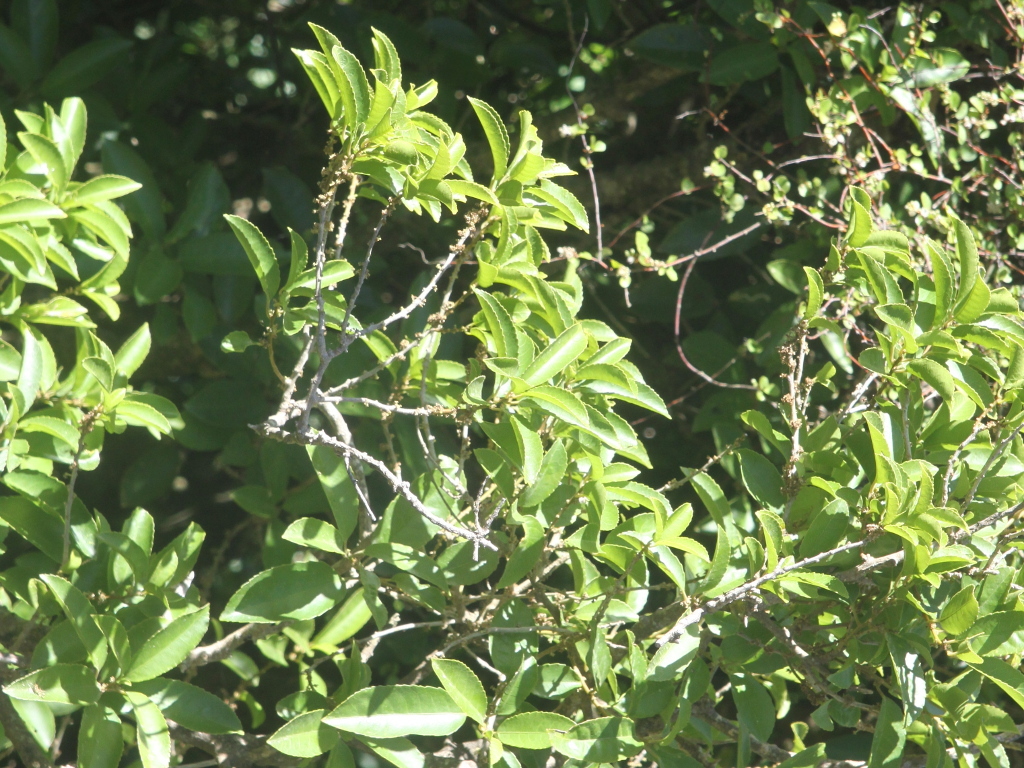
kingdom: Plantae
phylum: Tracheophyta
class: Magnoliopsida
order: Malpighiales
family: Violaceae
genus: Melicytus
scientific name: Melicytus ramiflorus
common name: Mahoe
